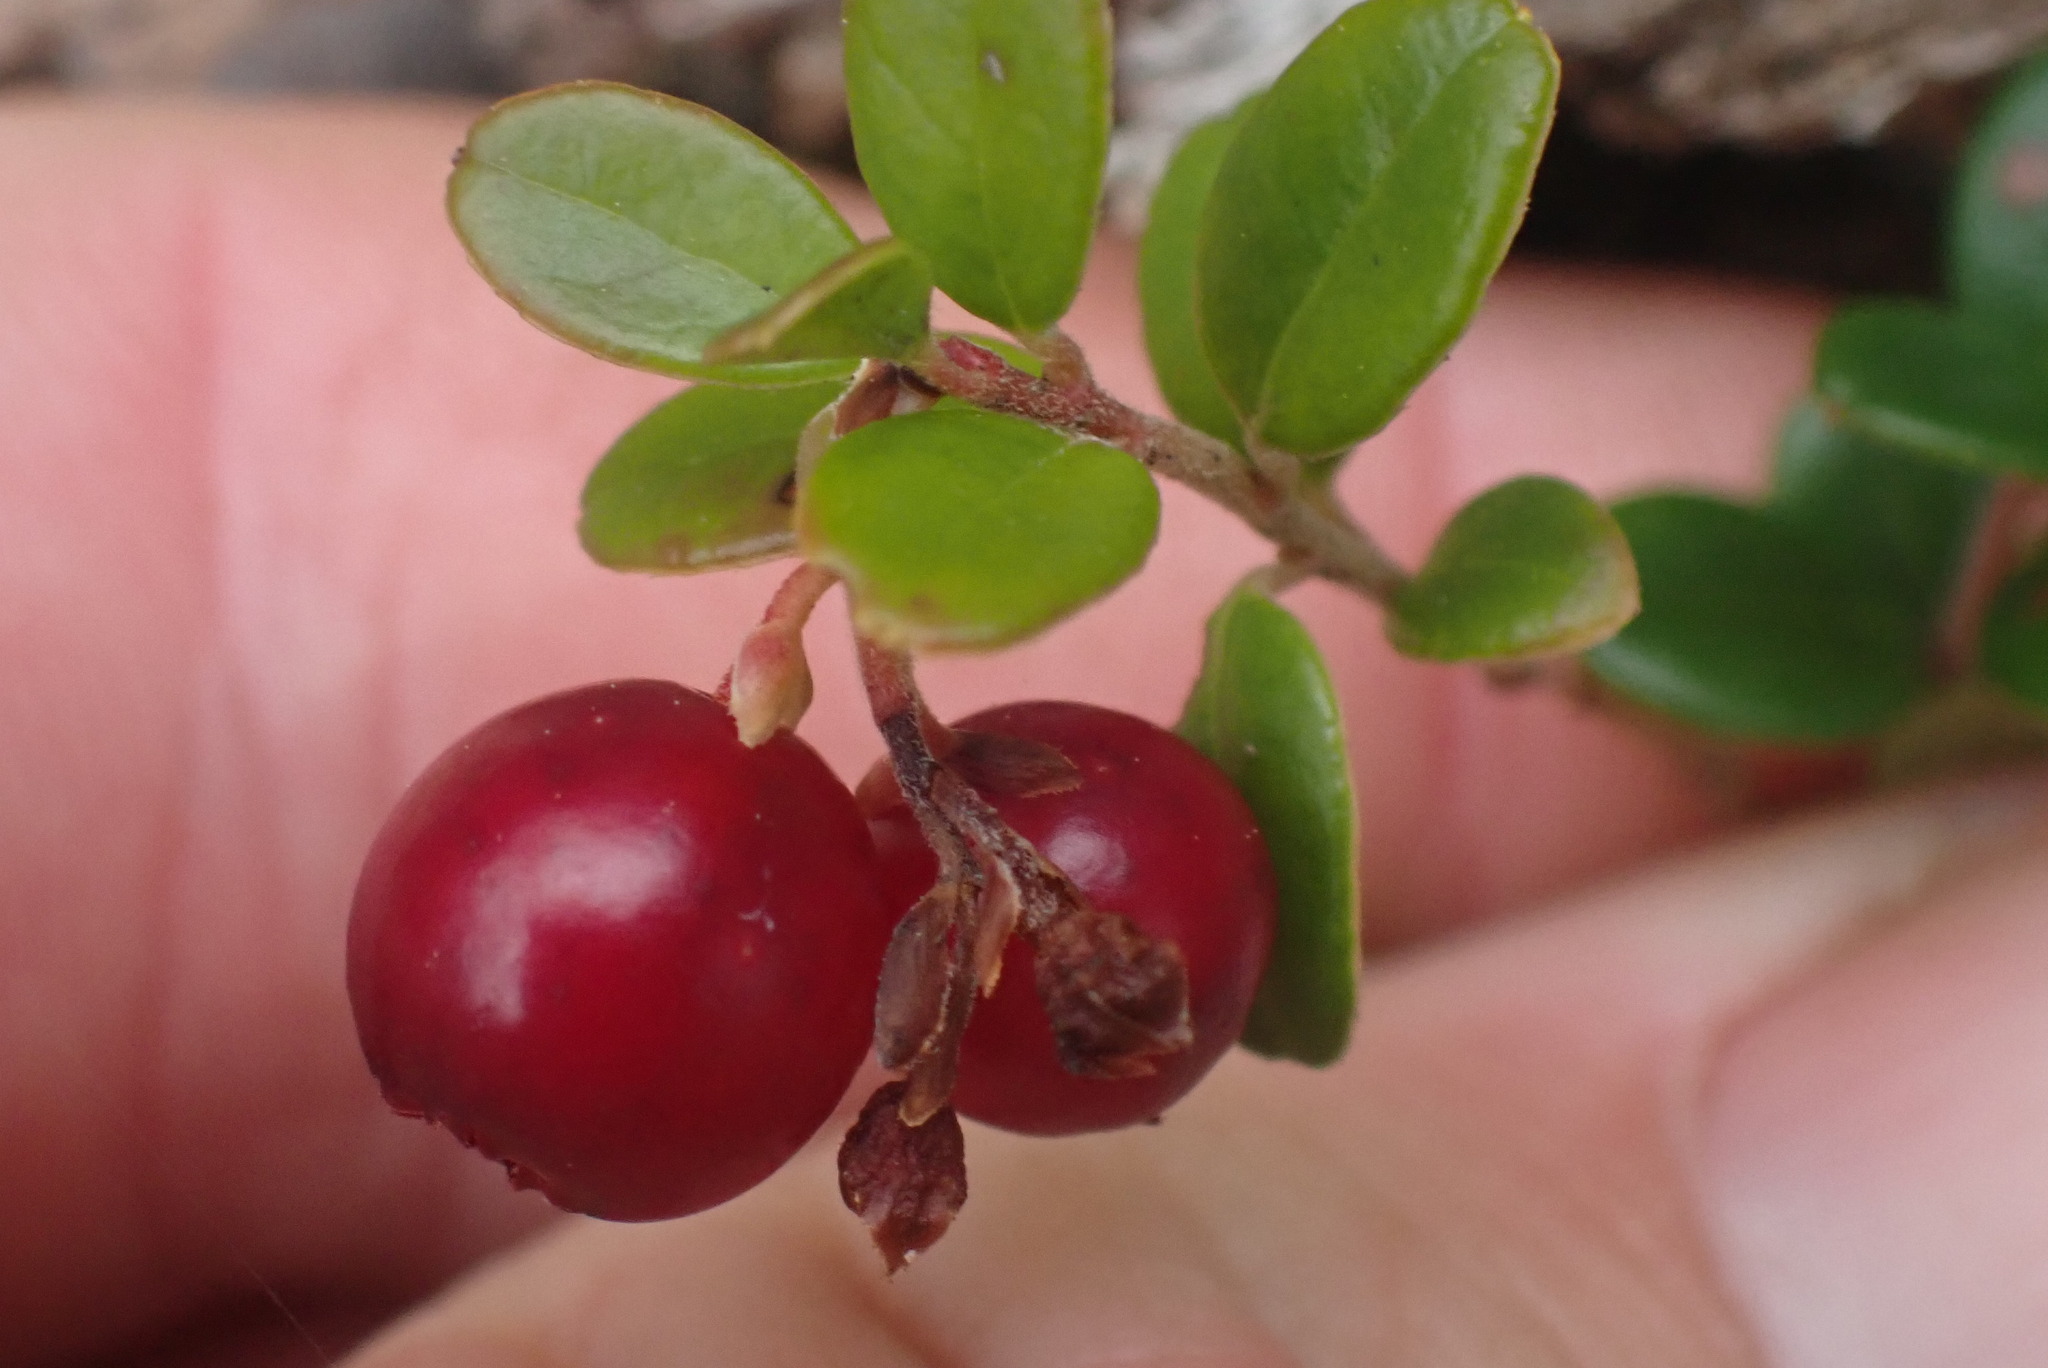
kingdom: Plantae
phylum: Tracheophyta
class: Magnoliopsida
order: Ericales
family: Ericaceae
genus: Vaccinium
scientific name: Vaccinium vitis-idaea
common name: Cowberry
